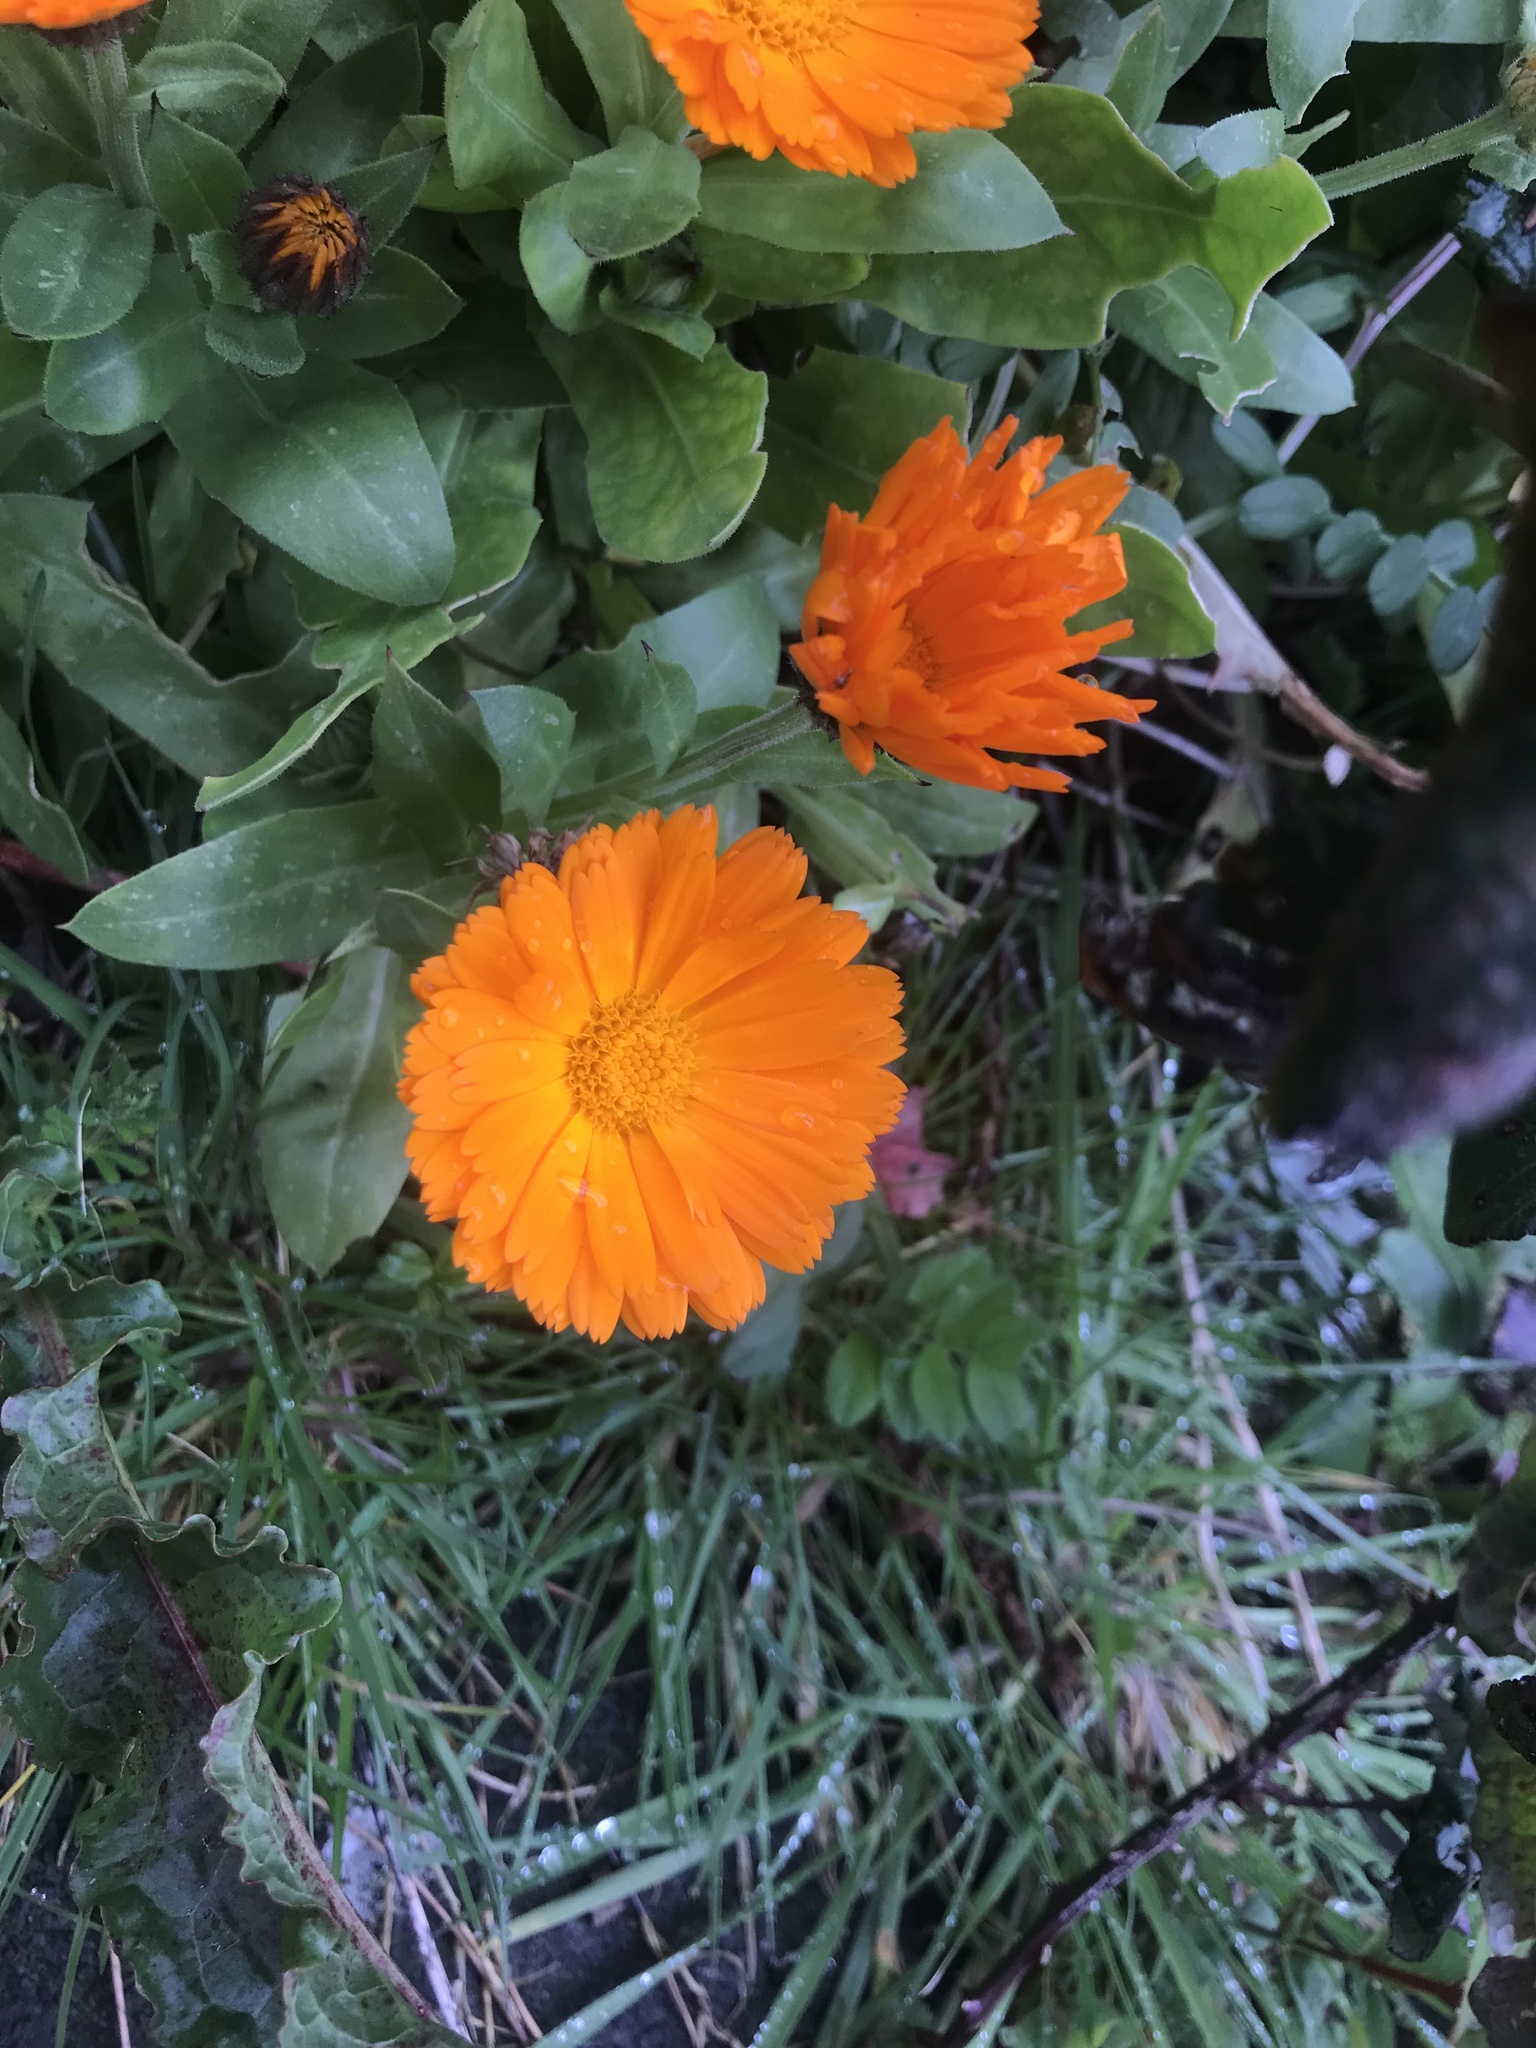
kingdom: Plantae
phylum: Tracheophyta
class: Magnoliopsida
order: Asterales
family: Asteraceae
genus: Calendula
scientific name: Calendula officinalis
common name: Pot marigold
